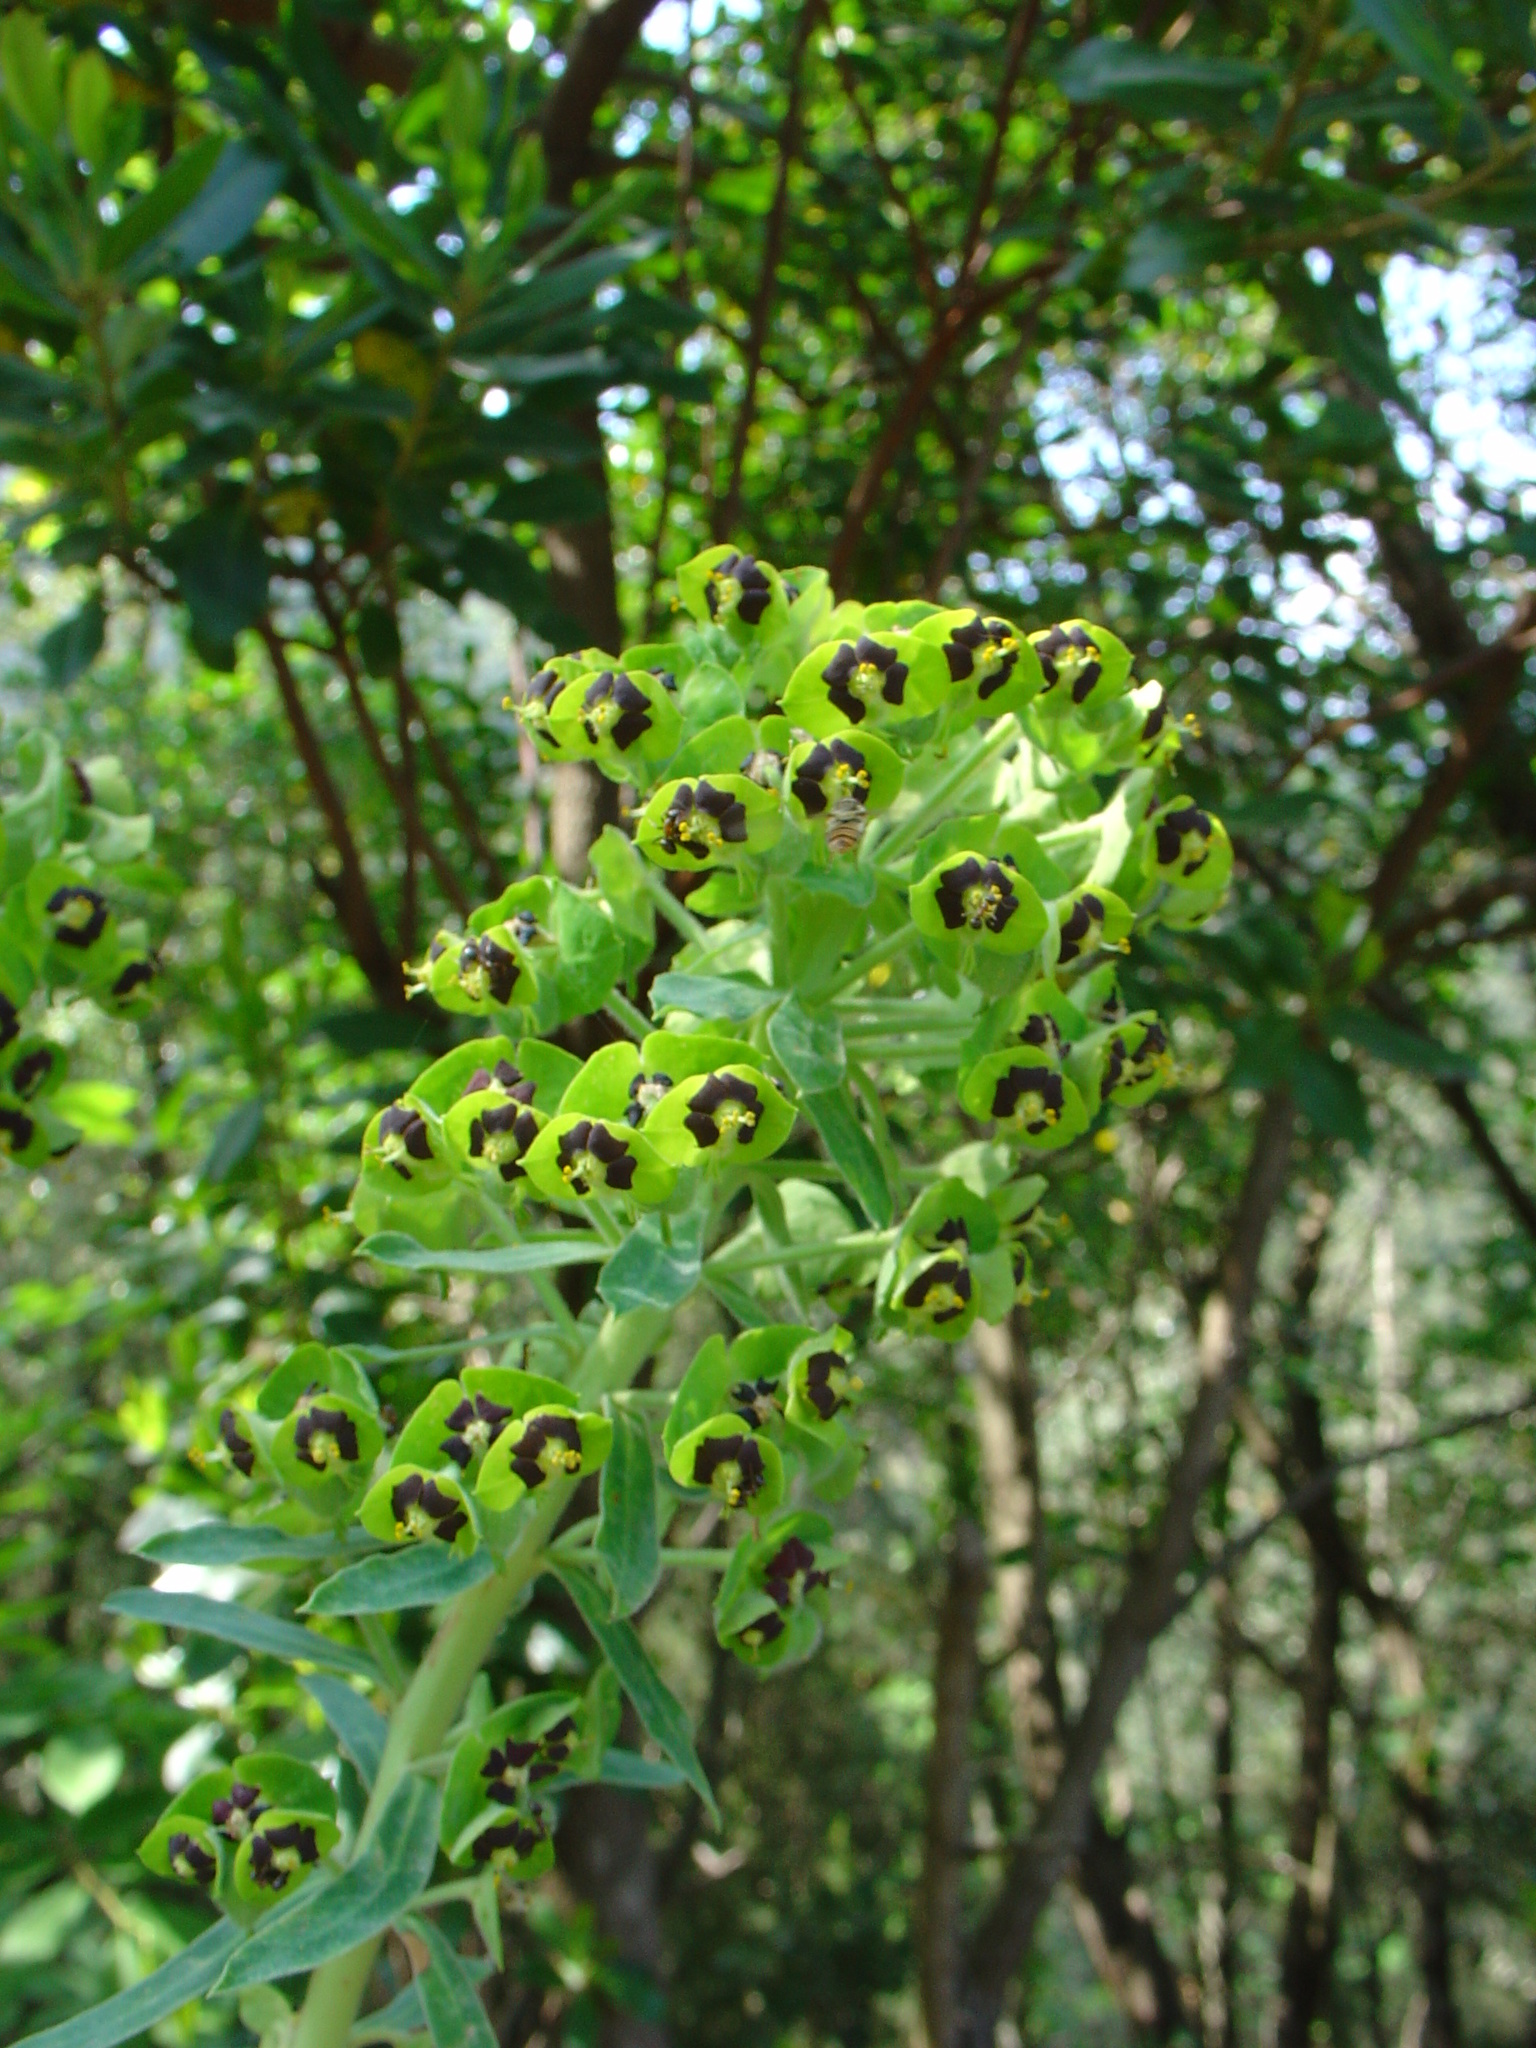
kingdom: Plantae
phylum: Tracheophyta
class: Magnoliopsida
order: Malpighiales
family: Euphorbiaceae
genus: Euphorbia
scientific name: Euphorbia characias
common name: Mediterranean spurge
